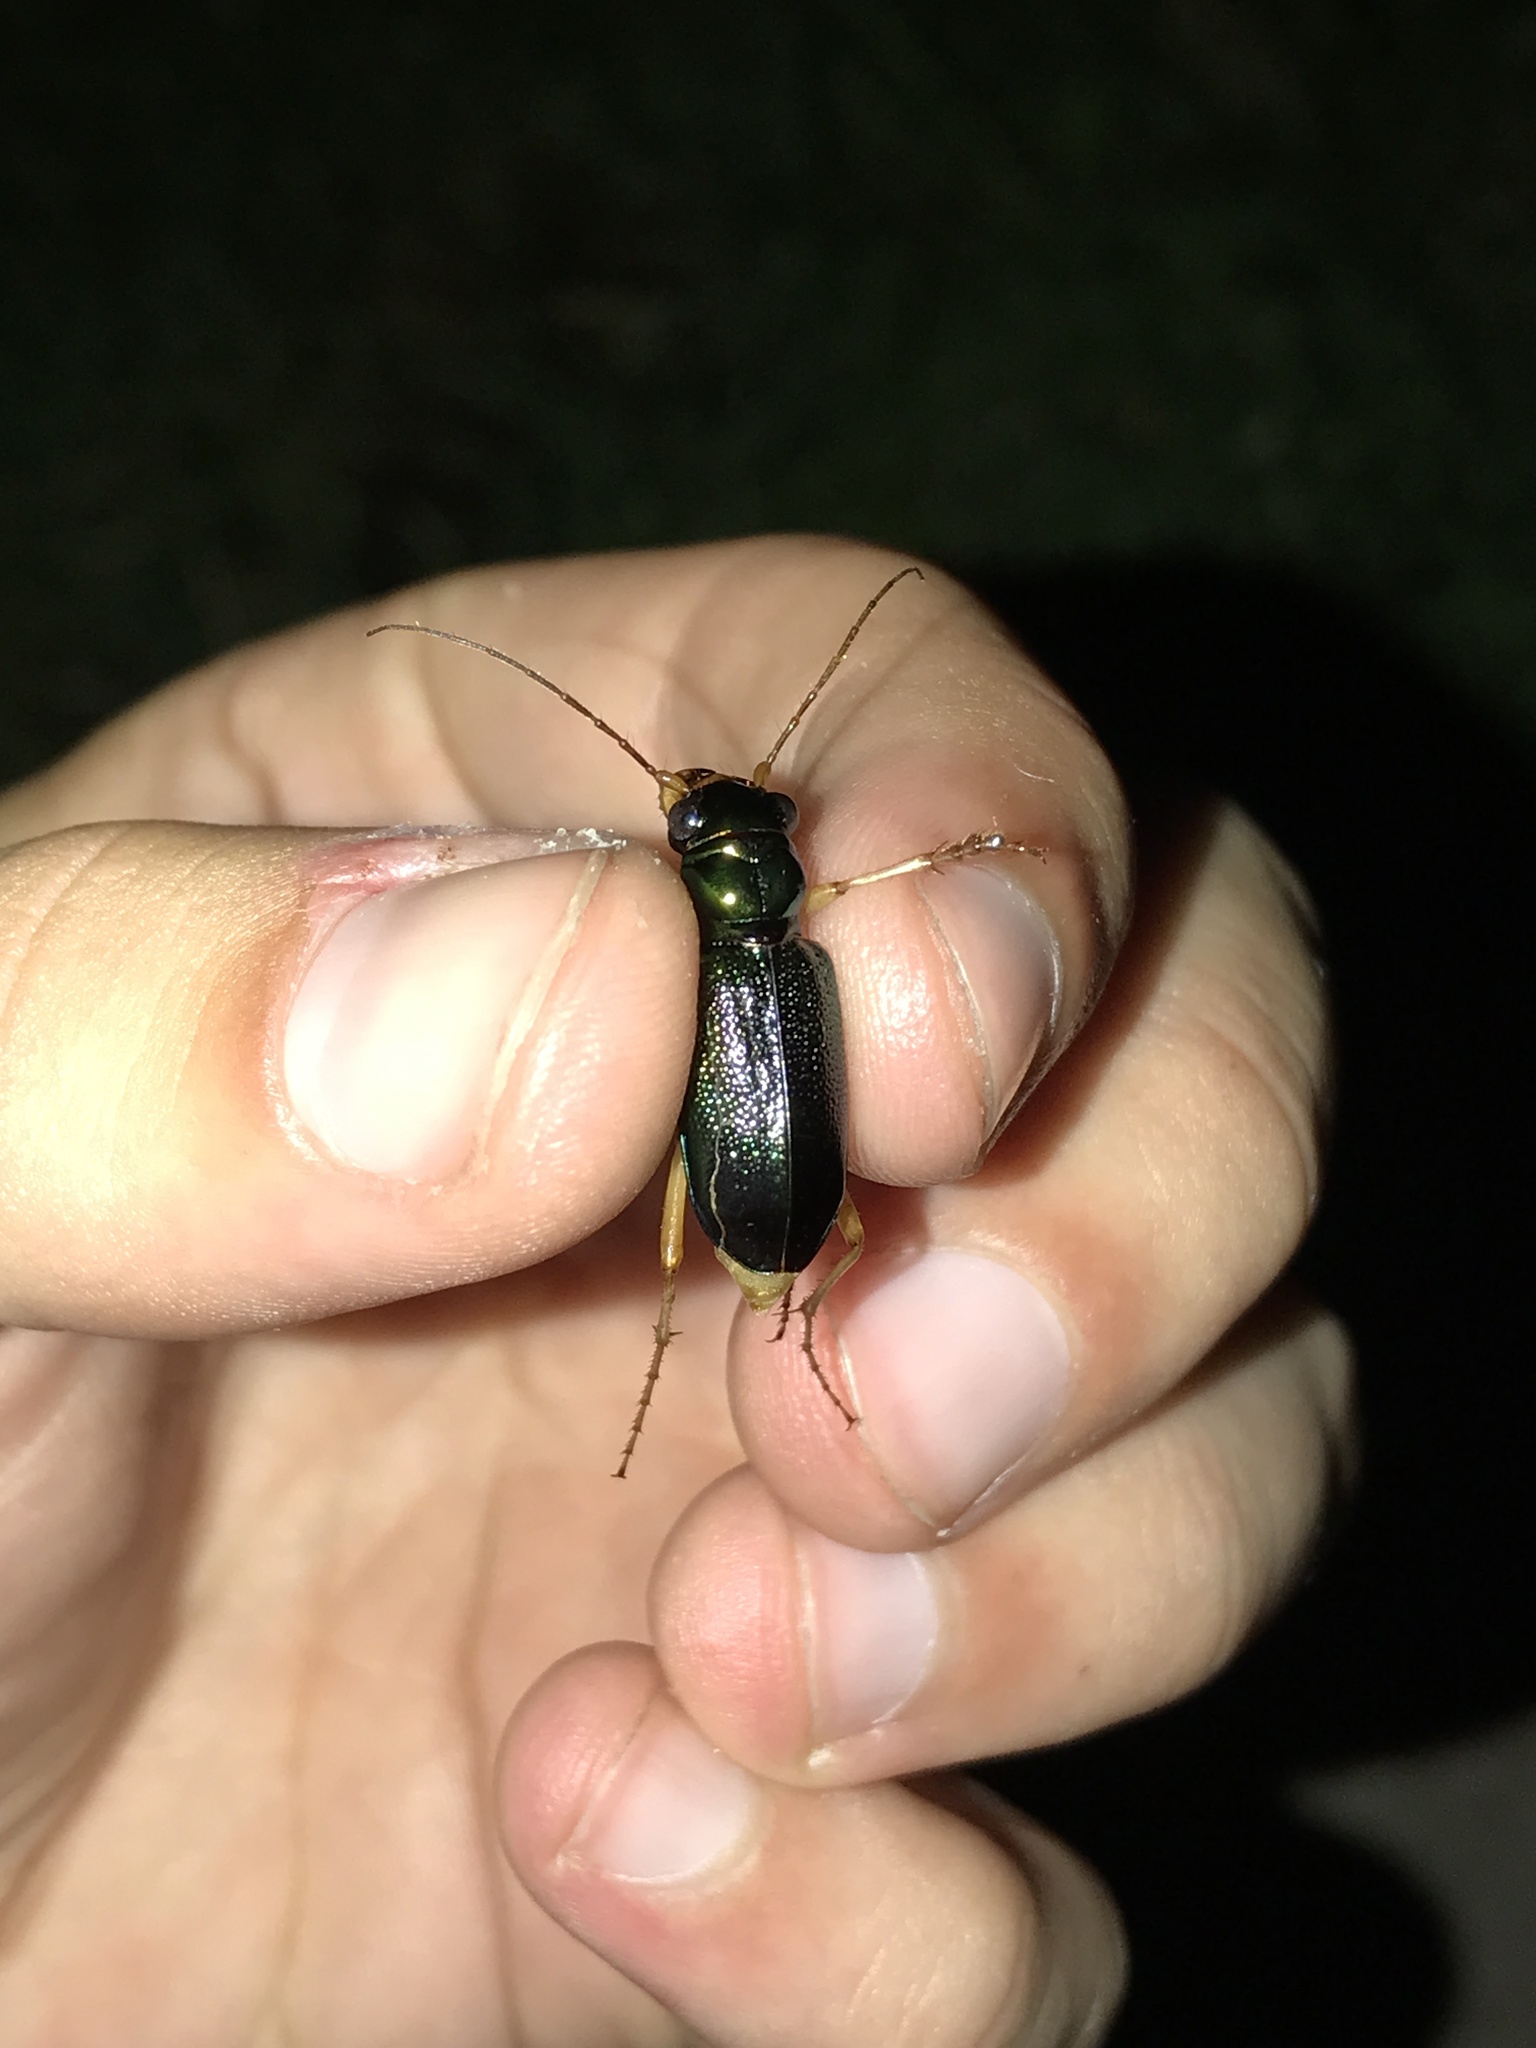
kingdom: Animalia
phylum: Arthropoda
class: Insecta
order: Coleoptera
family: Carabidae
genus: Tetracha
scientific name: Tetracha virginica
